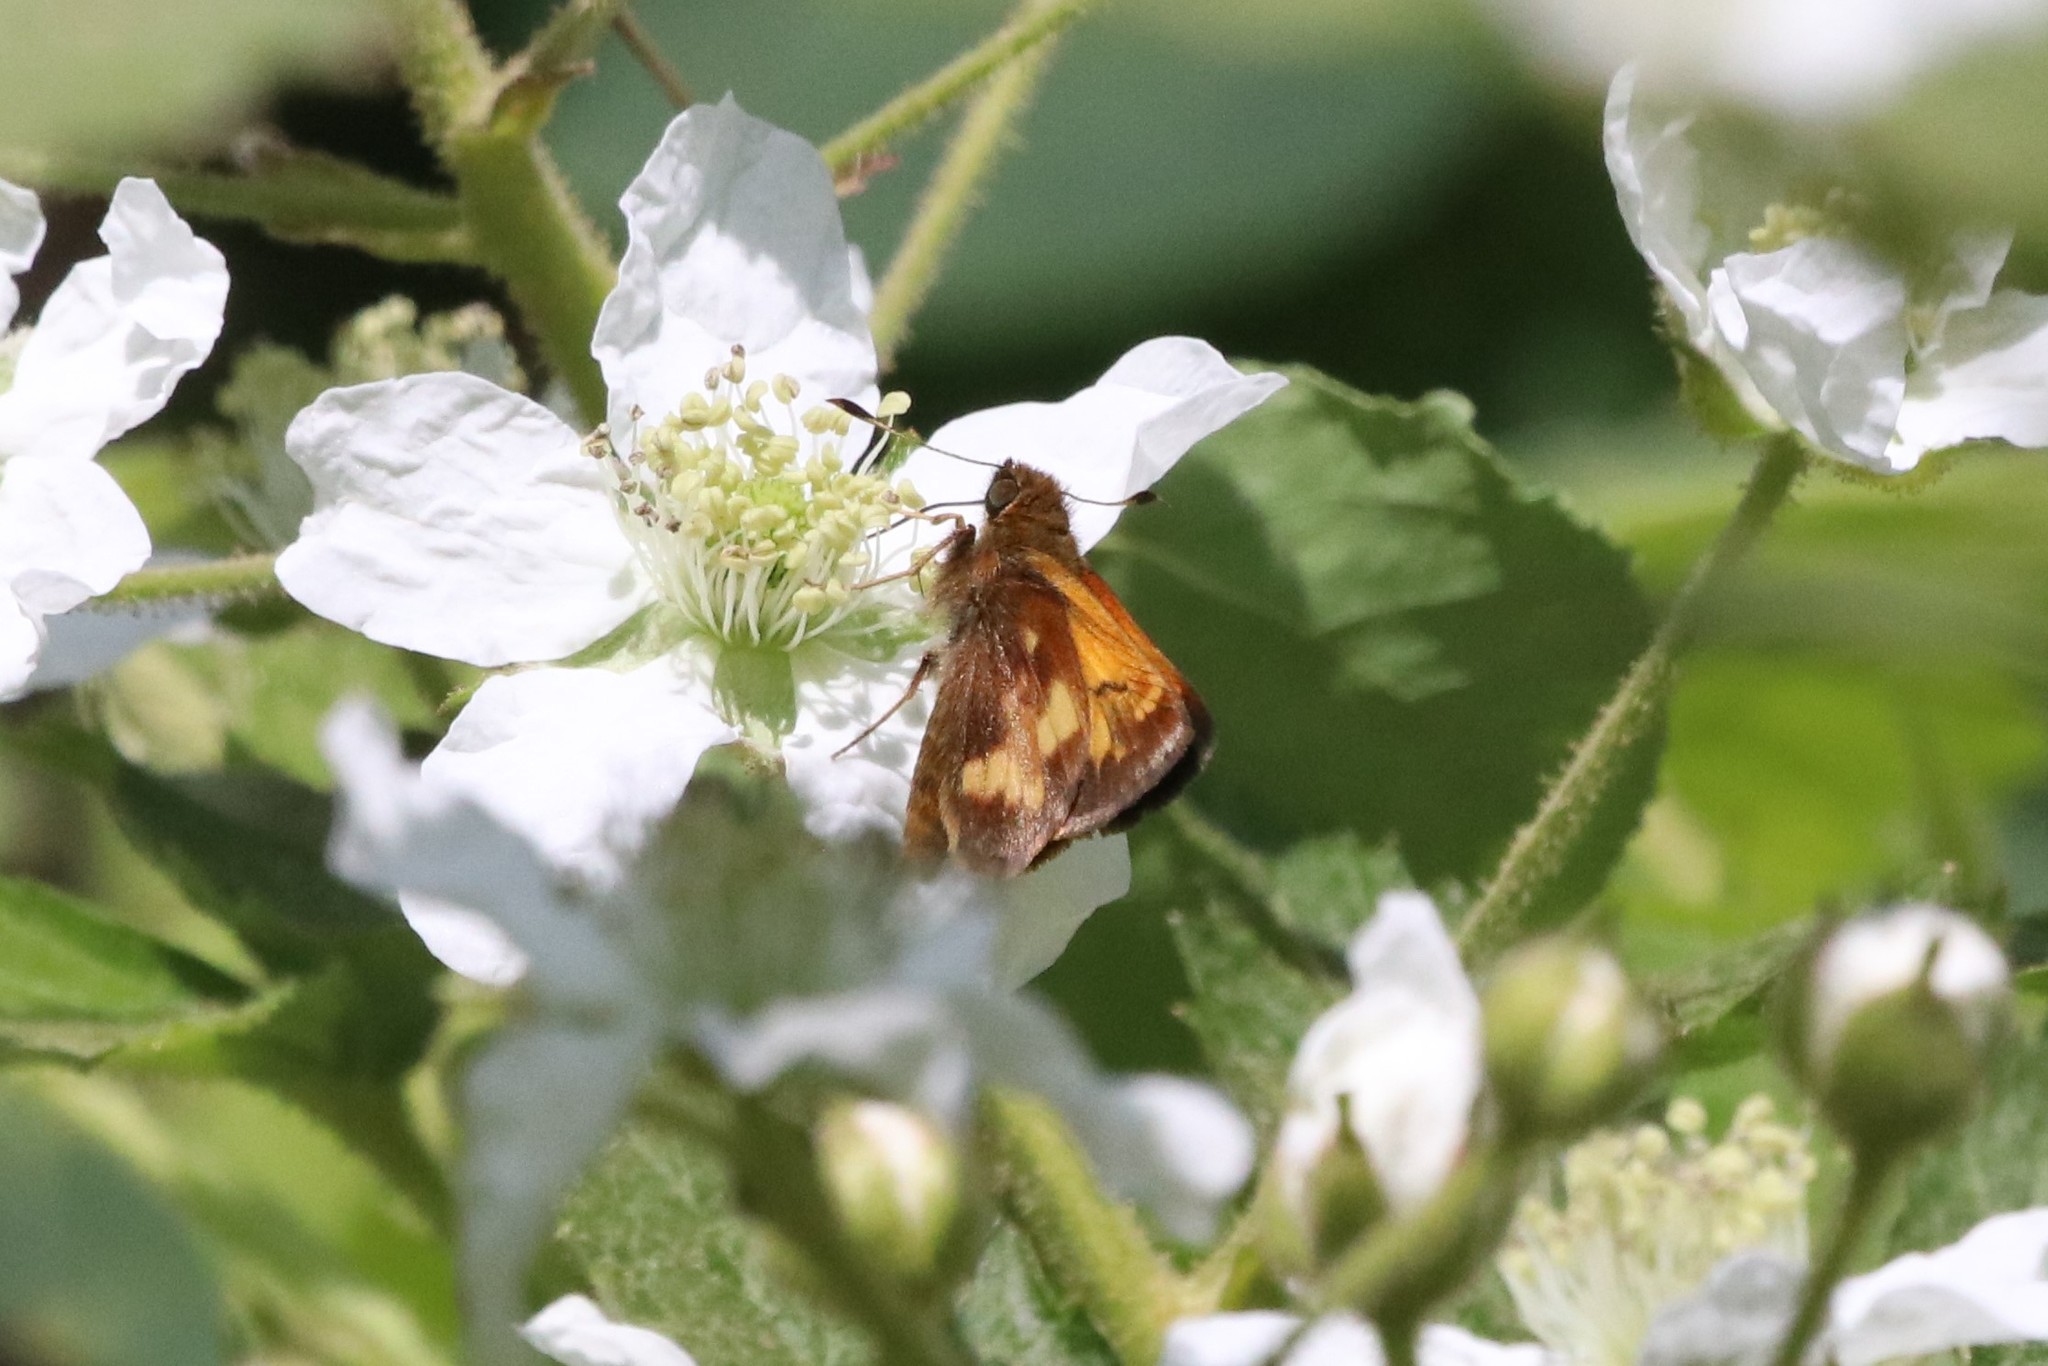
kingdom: Animalia
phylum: Arthropoda
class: Insecta
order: Lepidoptera
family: Hesperiidae
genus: Lon
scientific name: Lon hobomok
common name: Hobomok skipper
